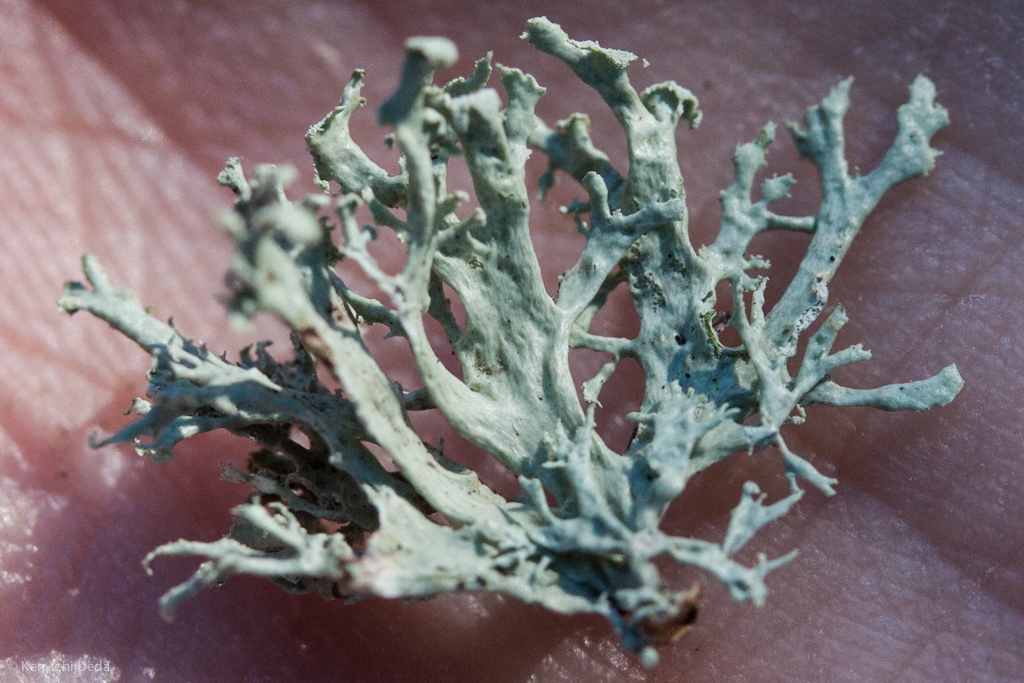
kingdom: Fungi
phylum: Ascomycota
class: Lecanoromycetes
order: Lecanorales
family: Ramalinaceae
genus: Ramalina
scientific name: Ramalina canariensis
